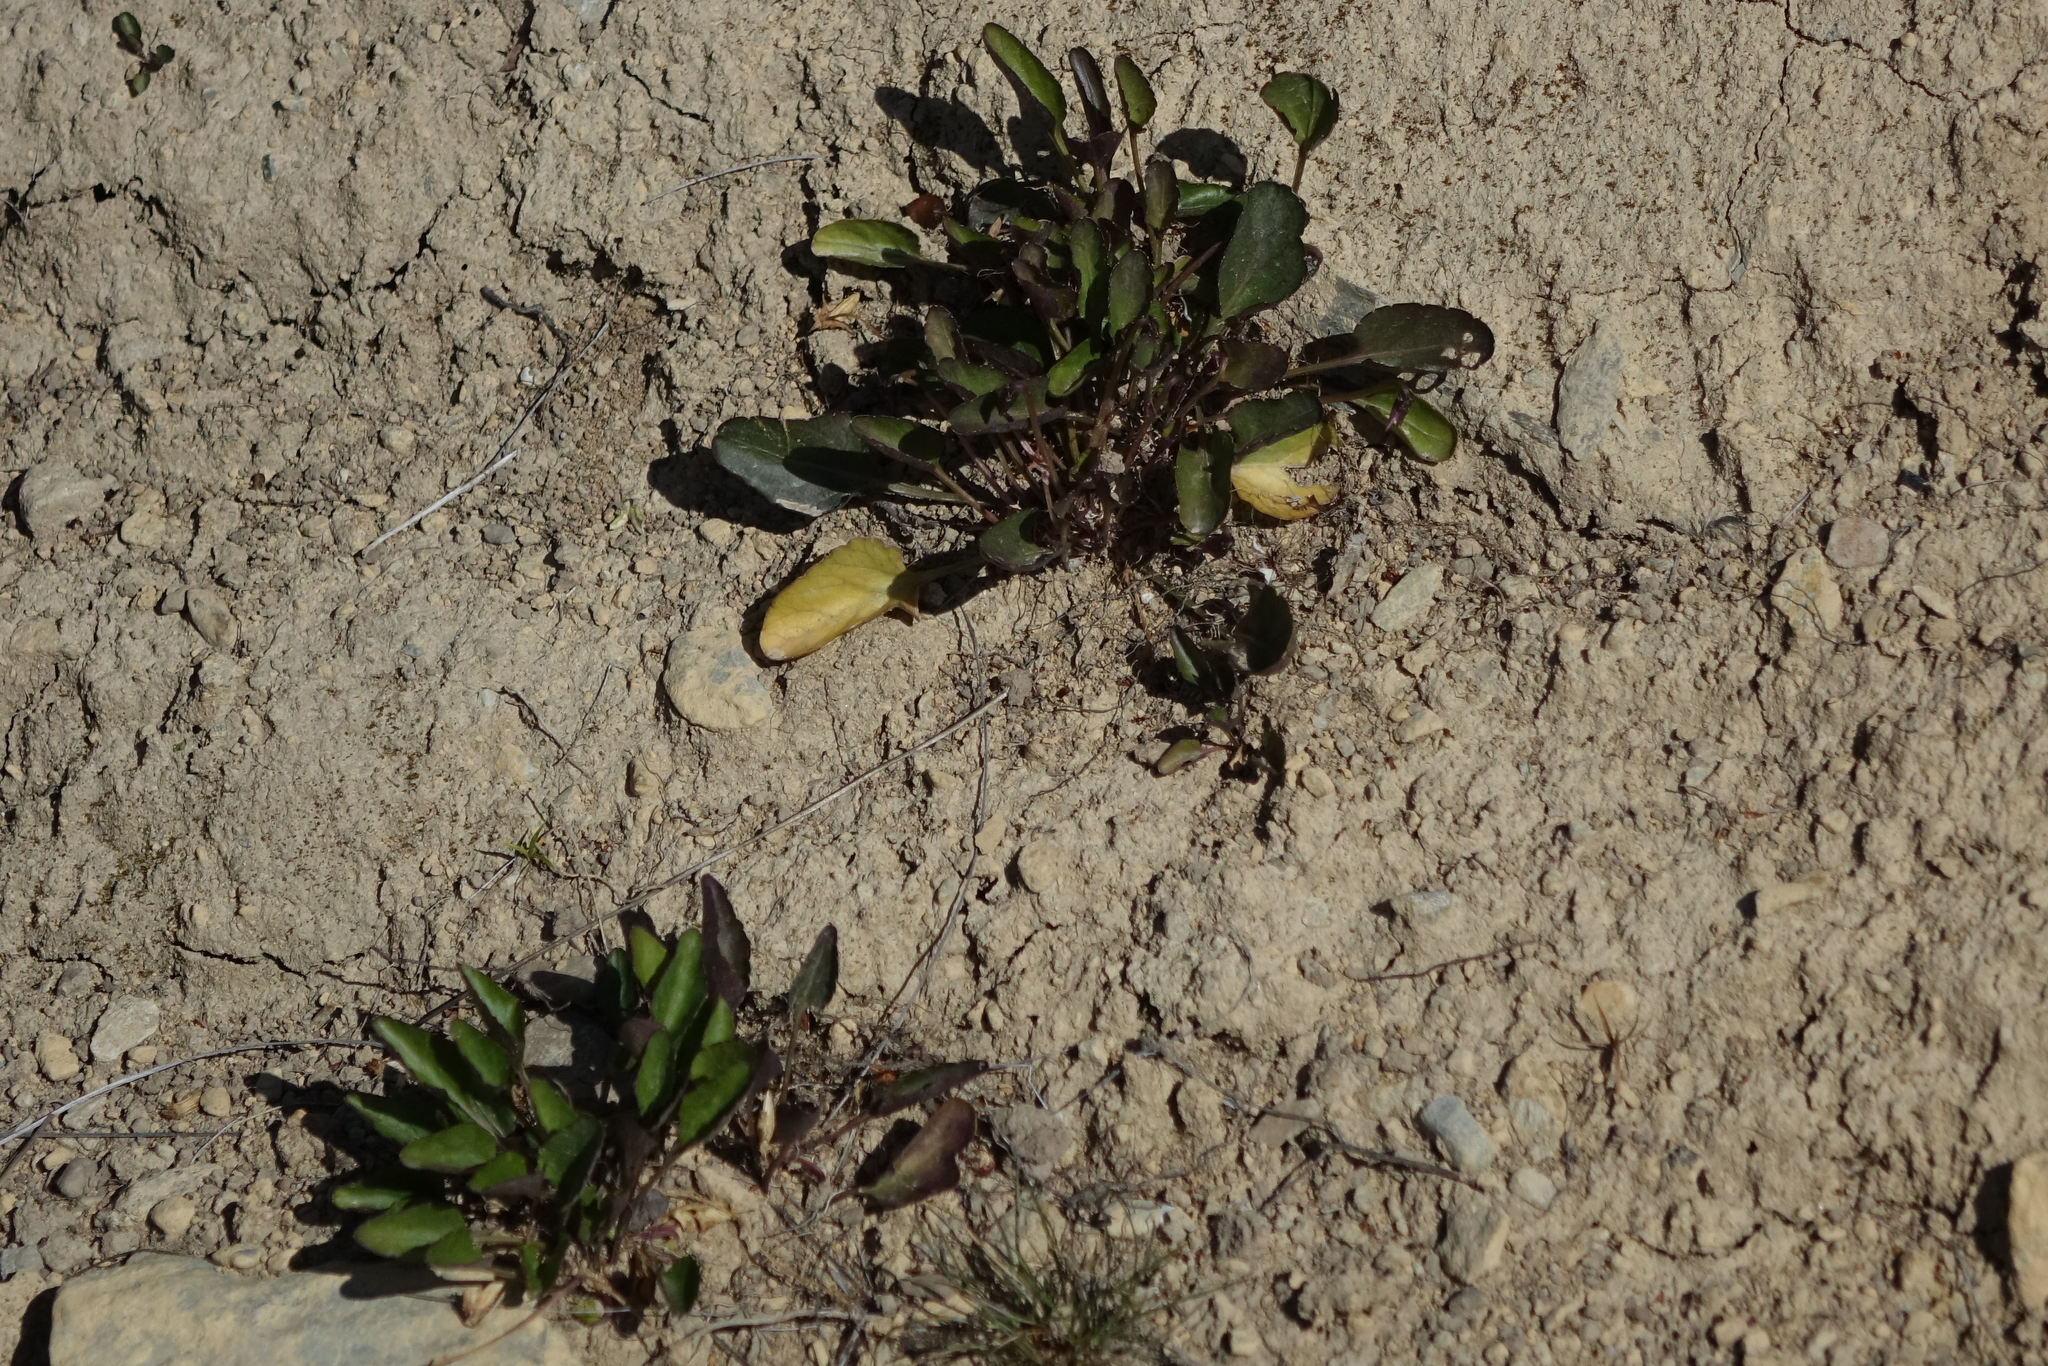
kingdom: Plantae
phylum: Tracheophyta
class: Magnoliopsida
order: Malpighiales
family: Violaceae
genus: Viola
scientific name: Viola cunninghamii
